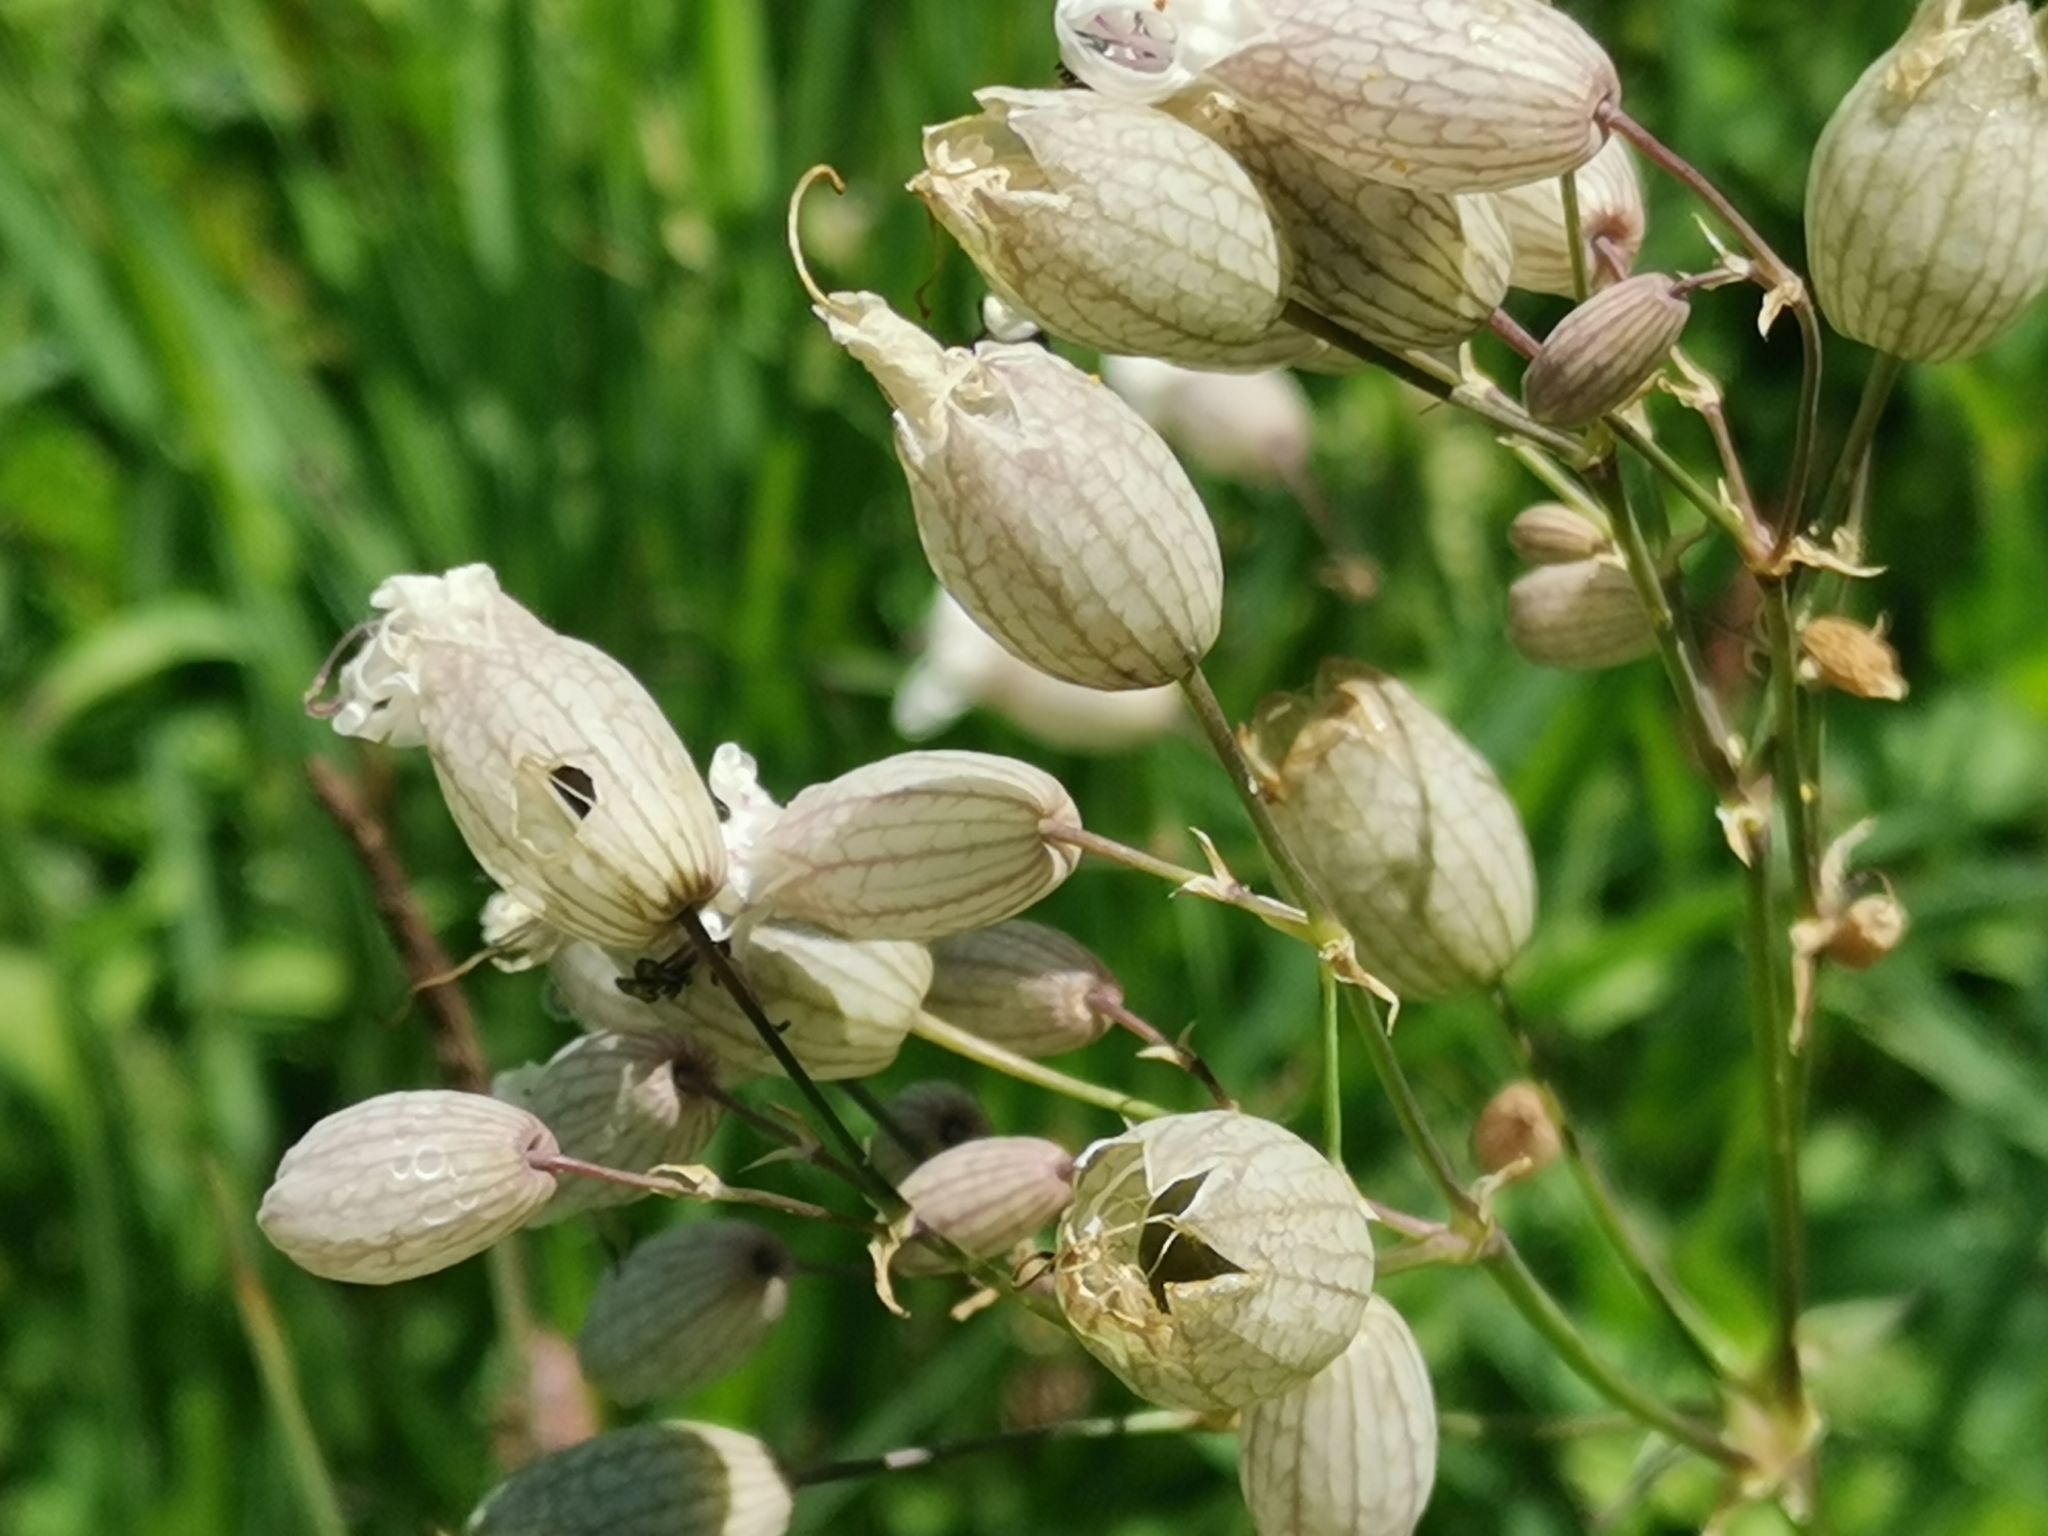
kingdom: Plantae
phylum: Tracheophyta
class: Magnoliopsida
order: Caryophyllales
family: Caryophyllaceae
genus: Silene
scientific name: Silene vulgaris
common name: Bladder campion
